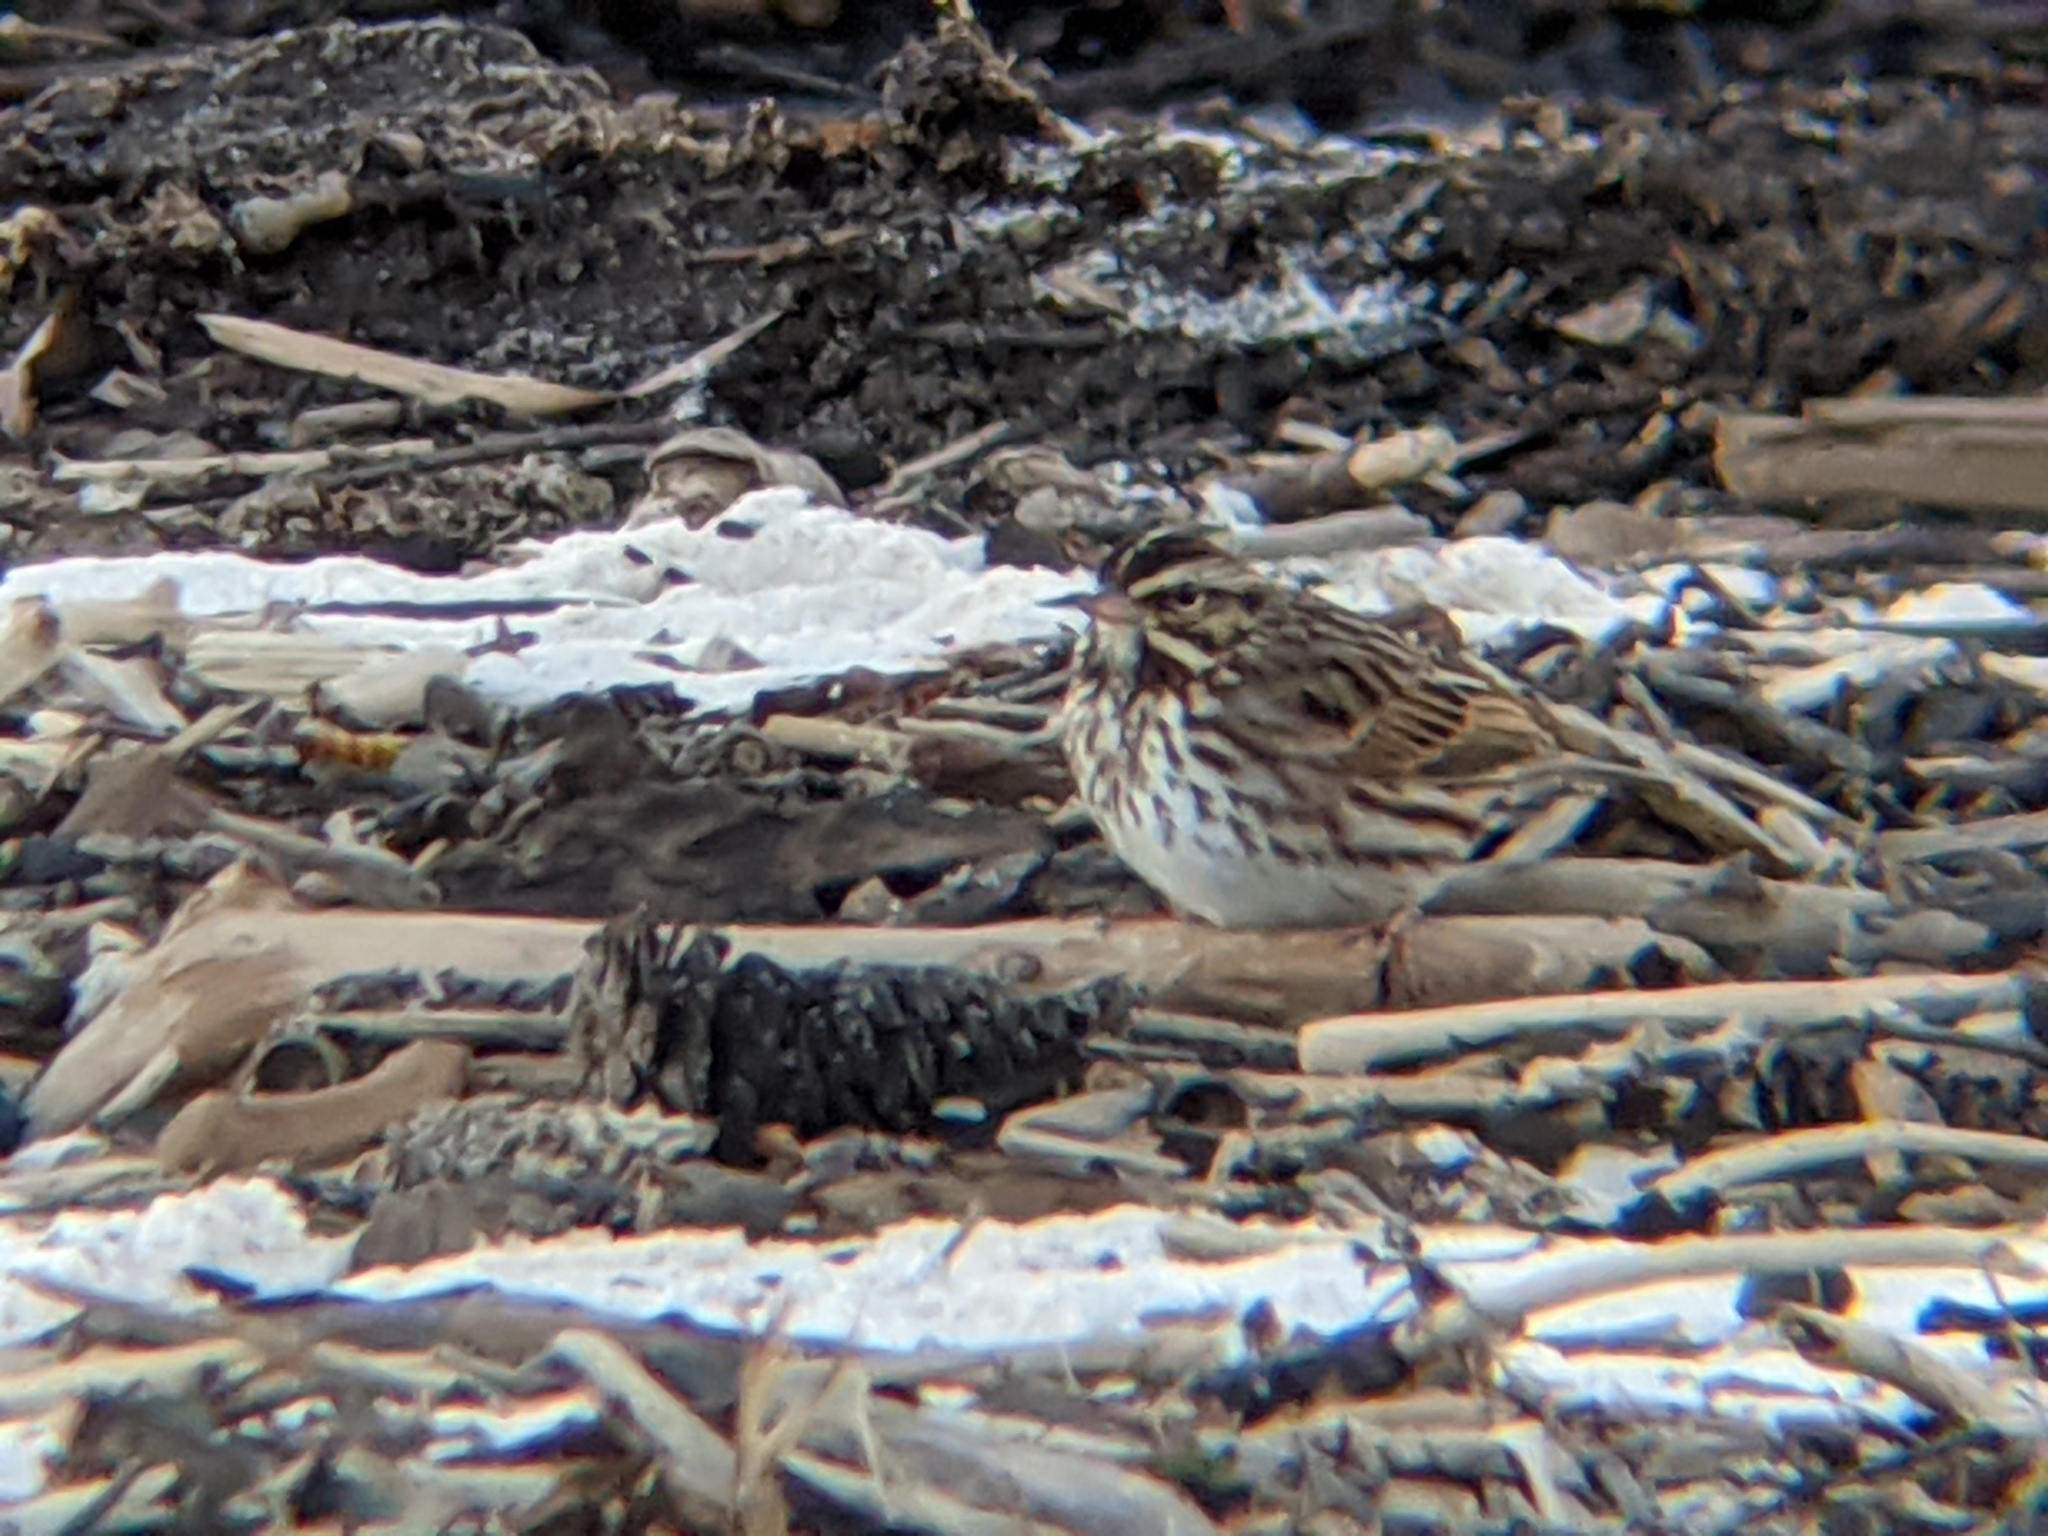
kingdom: Animalia
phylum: Chordata
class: Aves
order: Passeriformes
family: Passerellidae
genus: Passerculus
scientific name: Passerculus sandwichensis
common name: Savannah sparrow
